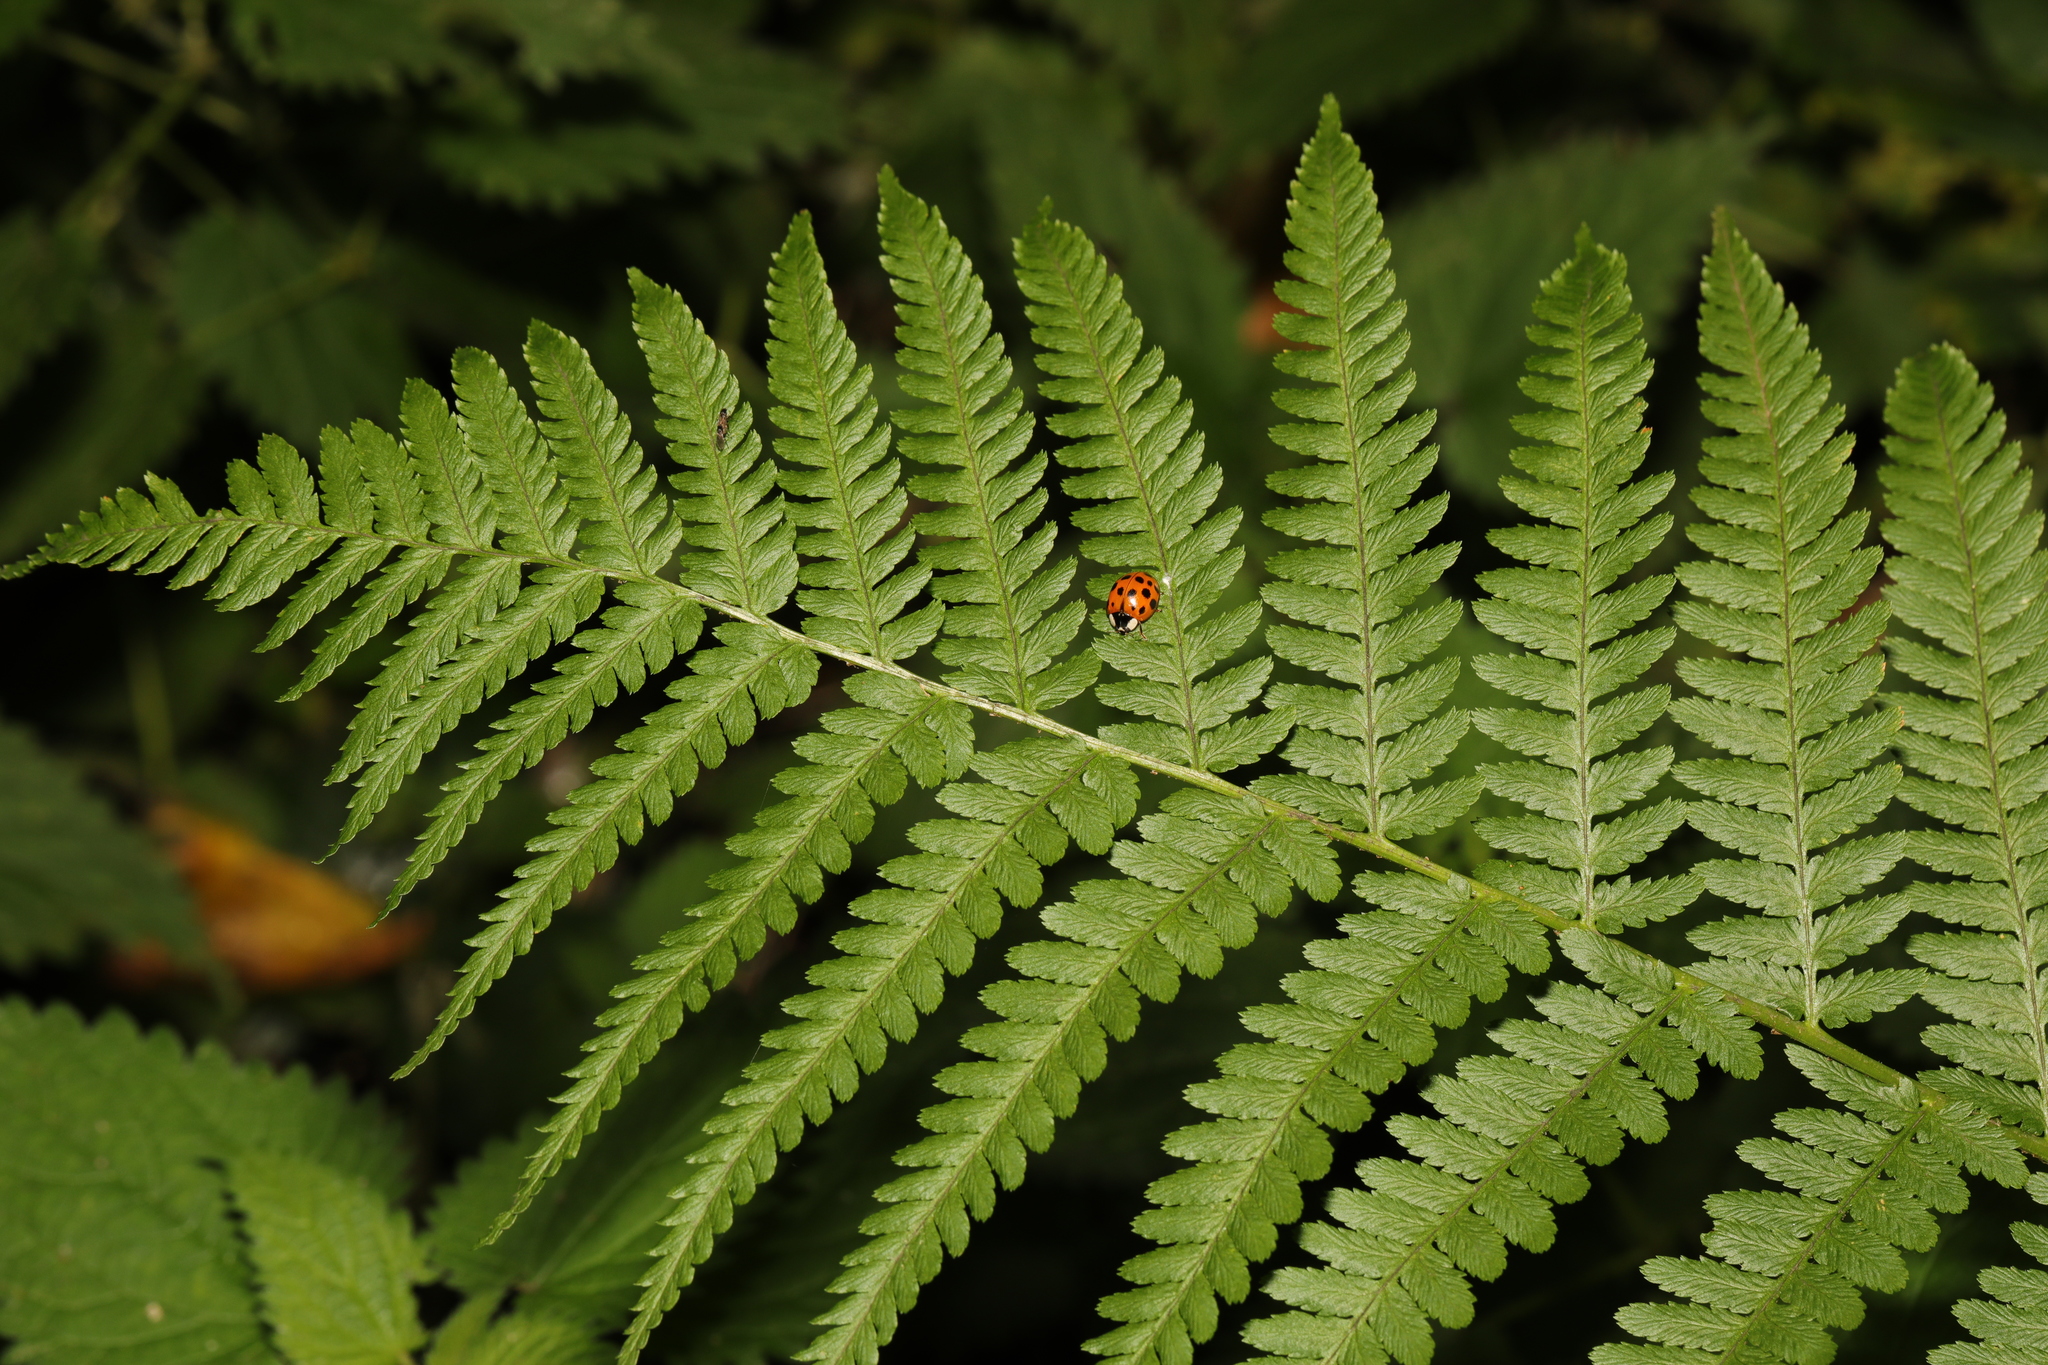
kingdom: Plantae
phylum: Tracheophyta
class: Polypodiopsida
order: Polypodiales
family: Dryopteridaceae
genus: Dryopteris
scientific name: Dryopteris filix-mas
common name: Male fern
